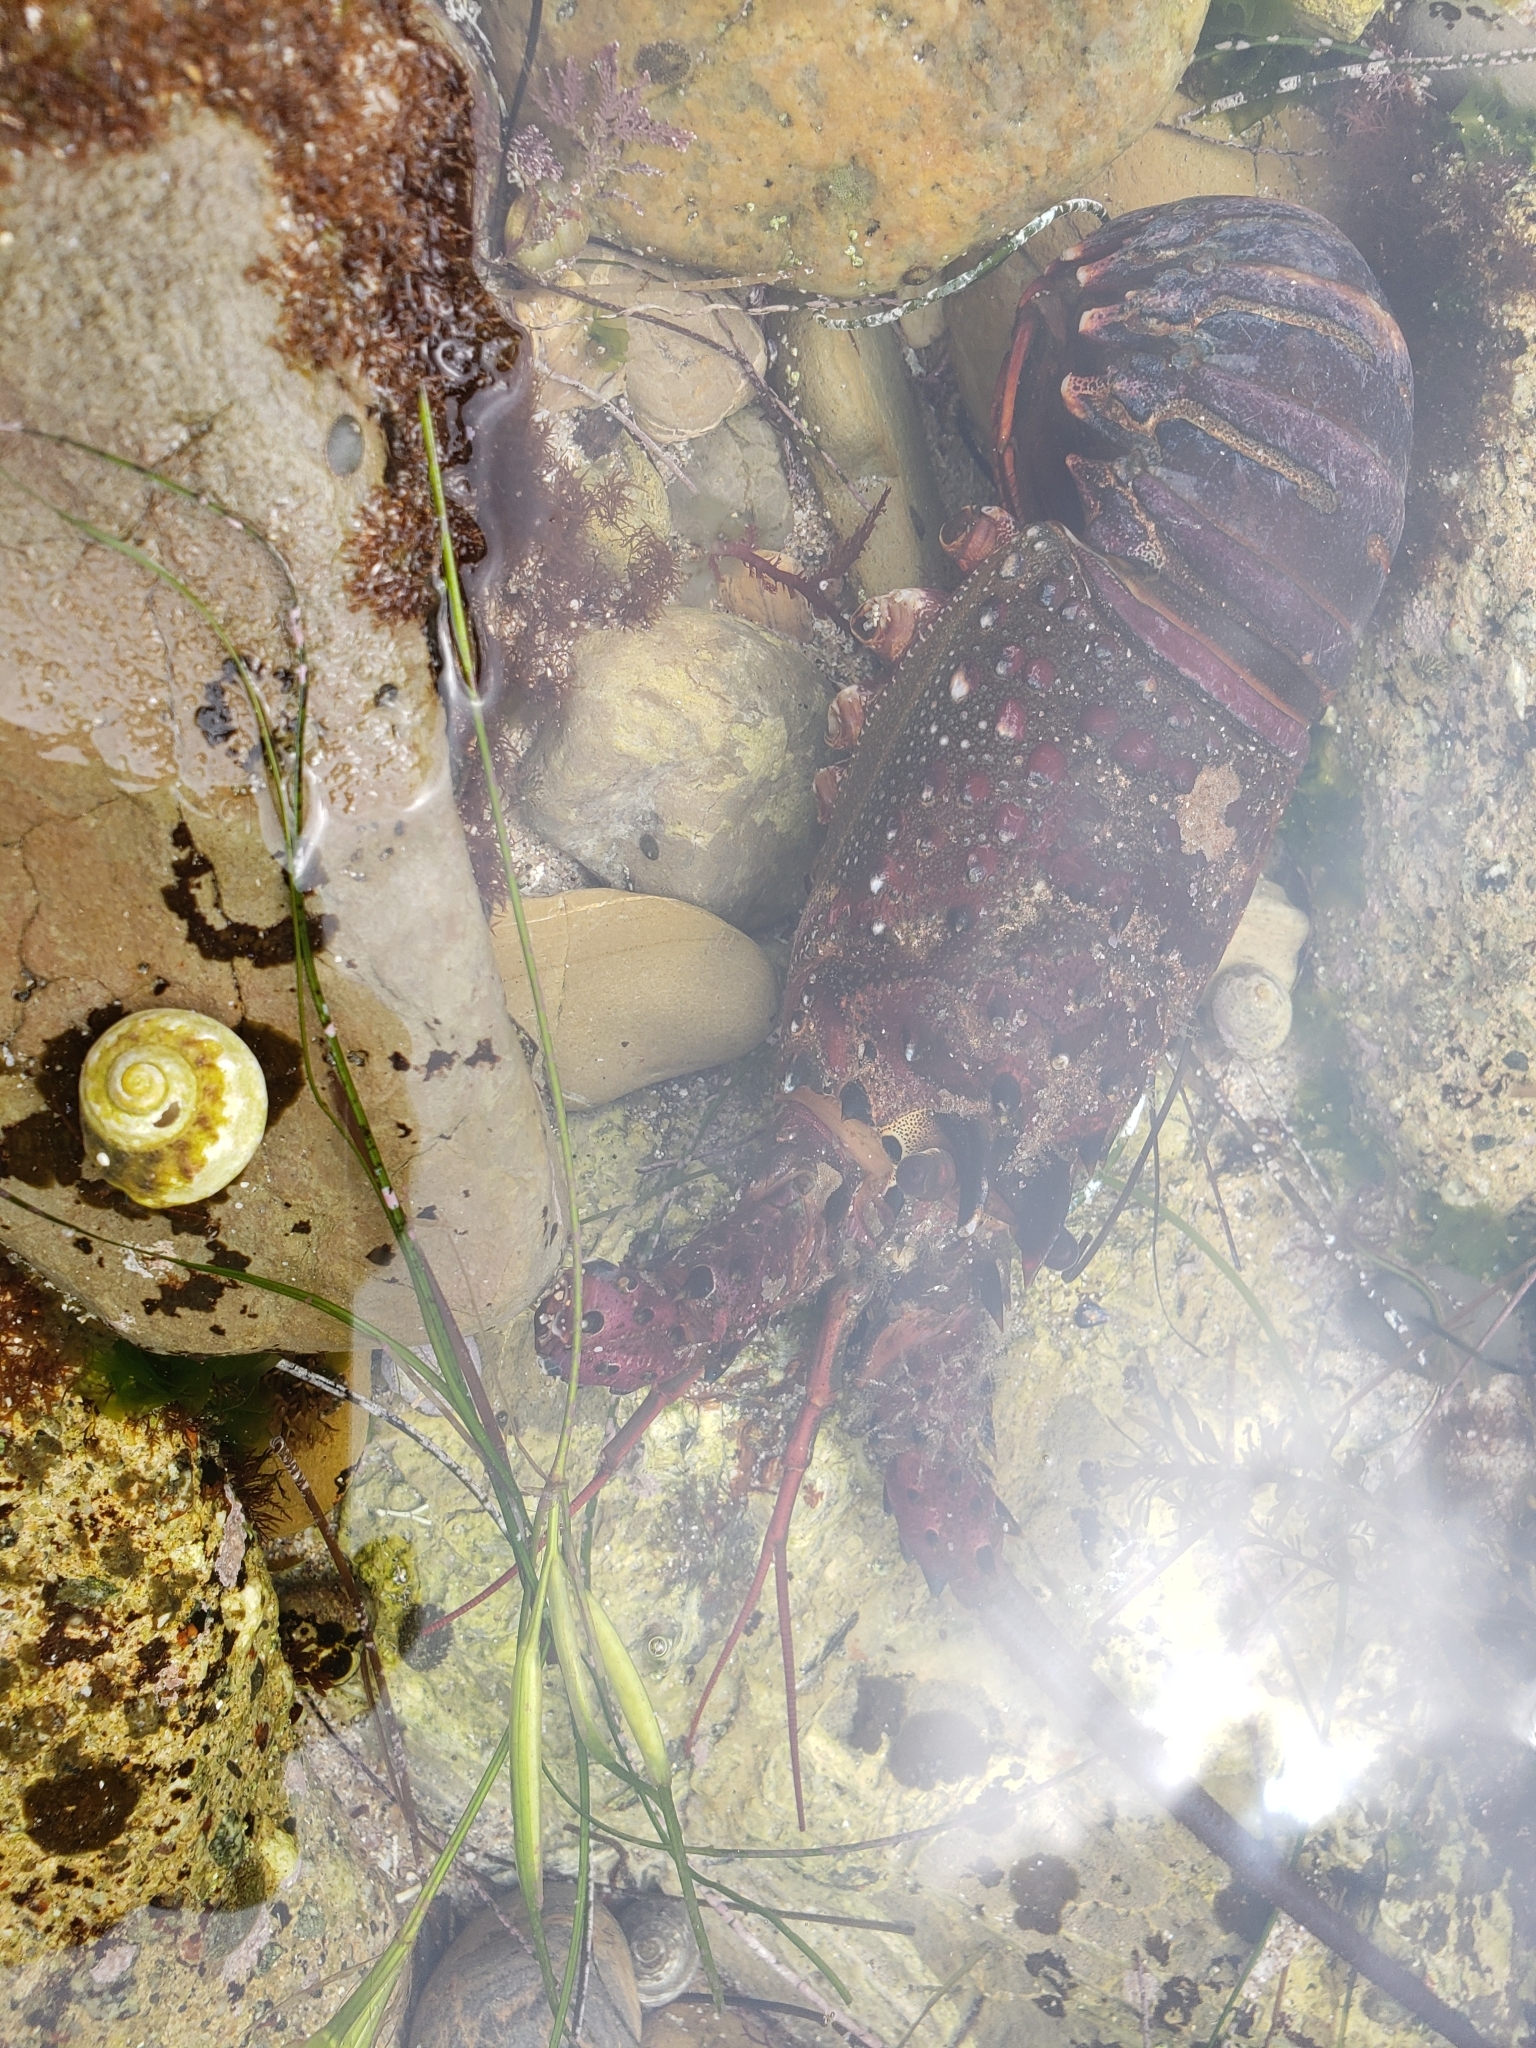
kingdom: Animalia
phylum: Arthropoda
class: Malacostraca
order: Decapoda
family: Palinuridae
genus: Panulirus
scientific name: Panulirus interruptus
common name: California spiny lobster
